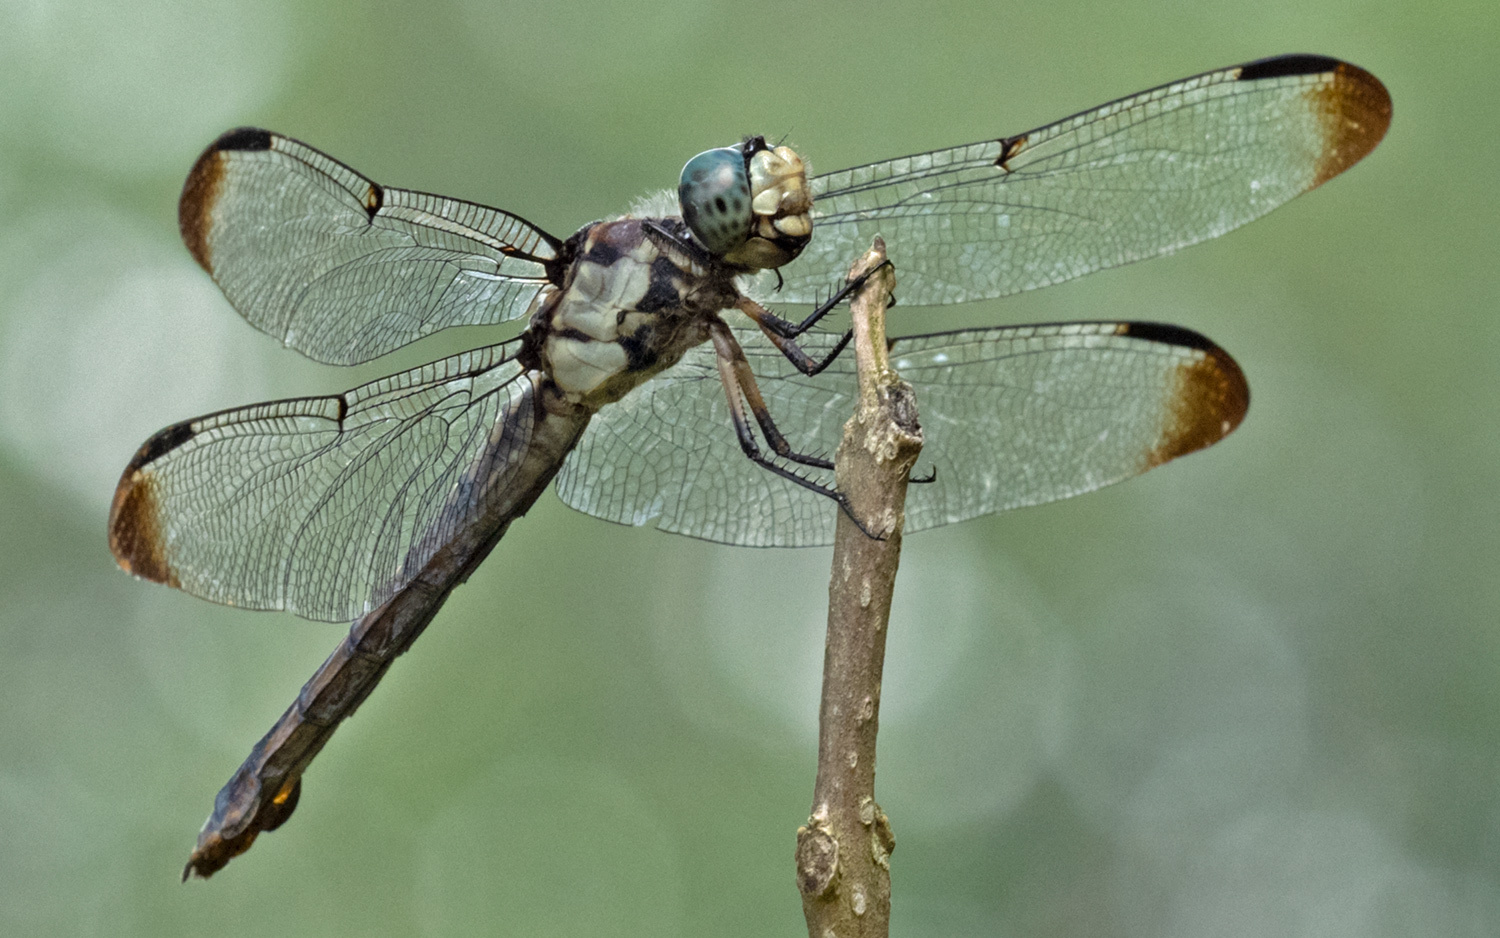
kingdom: Animalia
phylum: Arthropoda
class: Insecta
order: Odonata
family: Libellulidae
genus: Libellula
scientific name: Libellula vibrans
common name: Great blue skimmer
